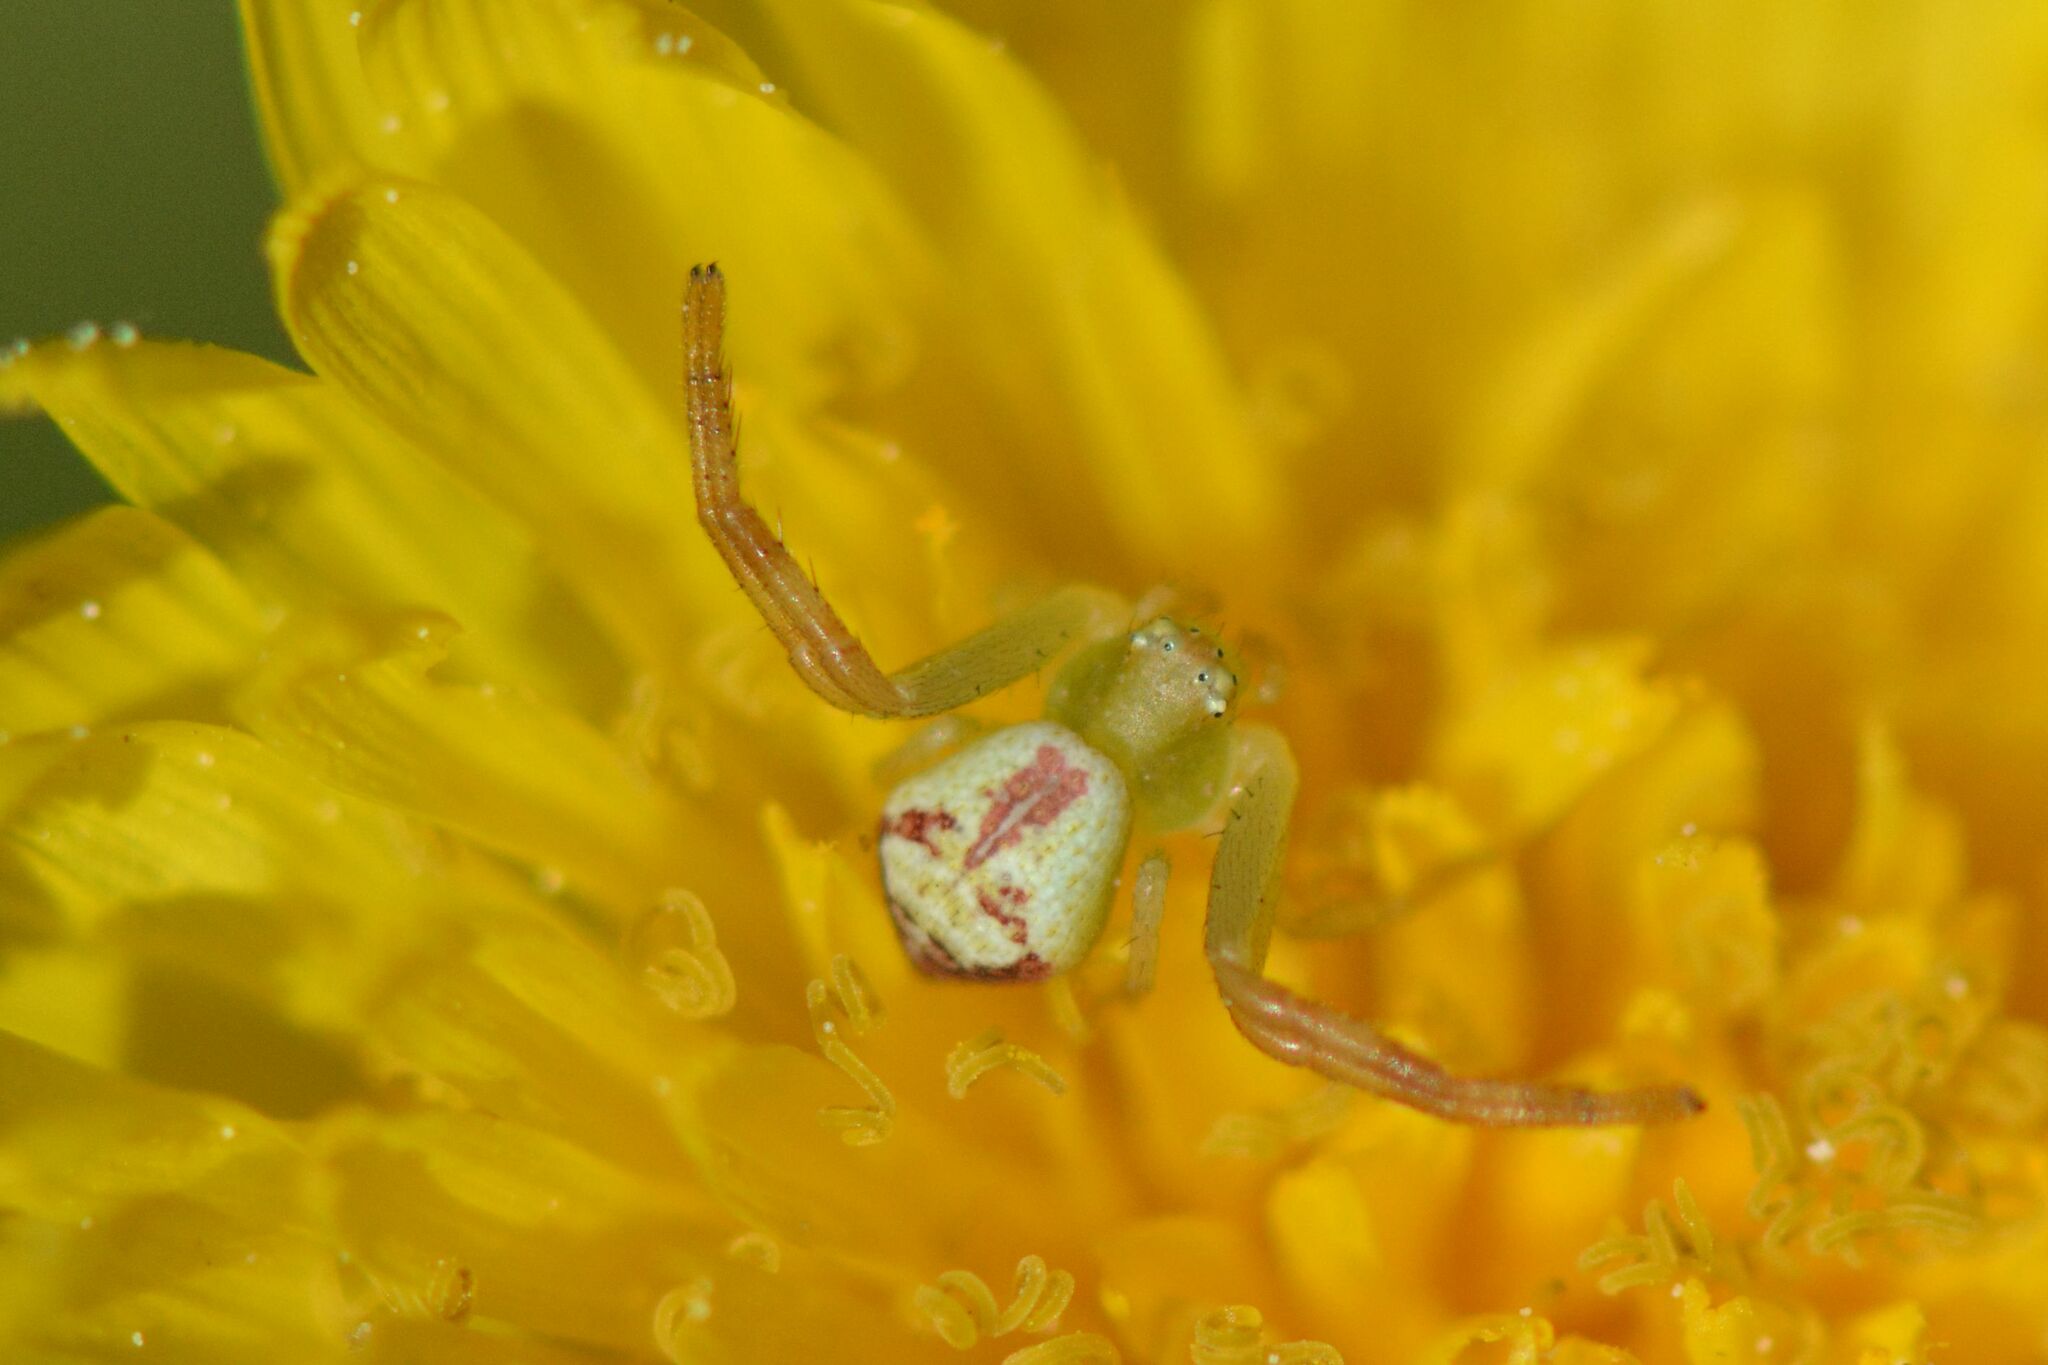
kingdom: Animalia
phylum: Arthropoda
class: Arachnida
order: Araneae
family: Thomisidae
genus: Ebrechtella
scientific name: Ebrechtella tricuspidata
